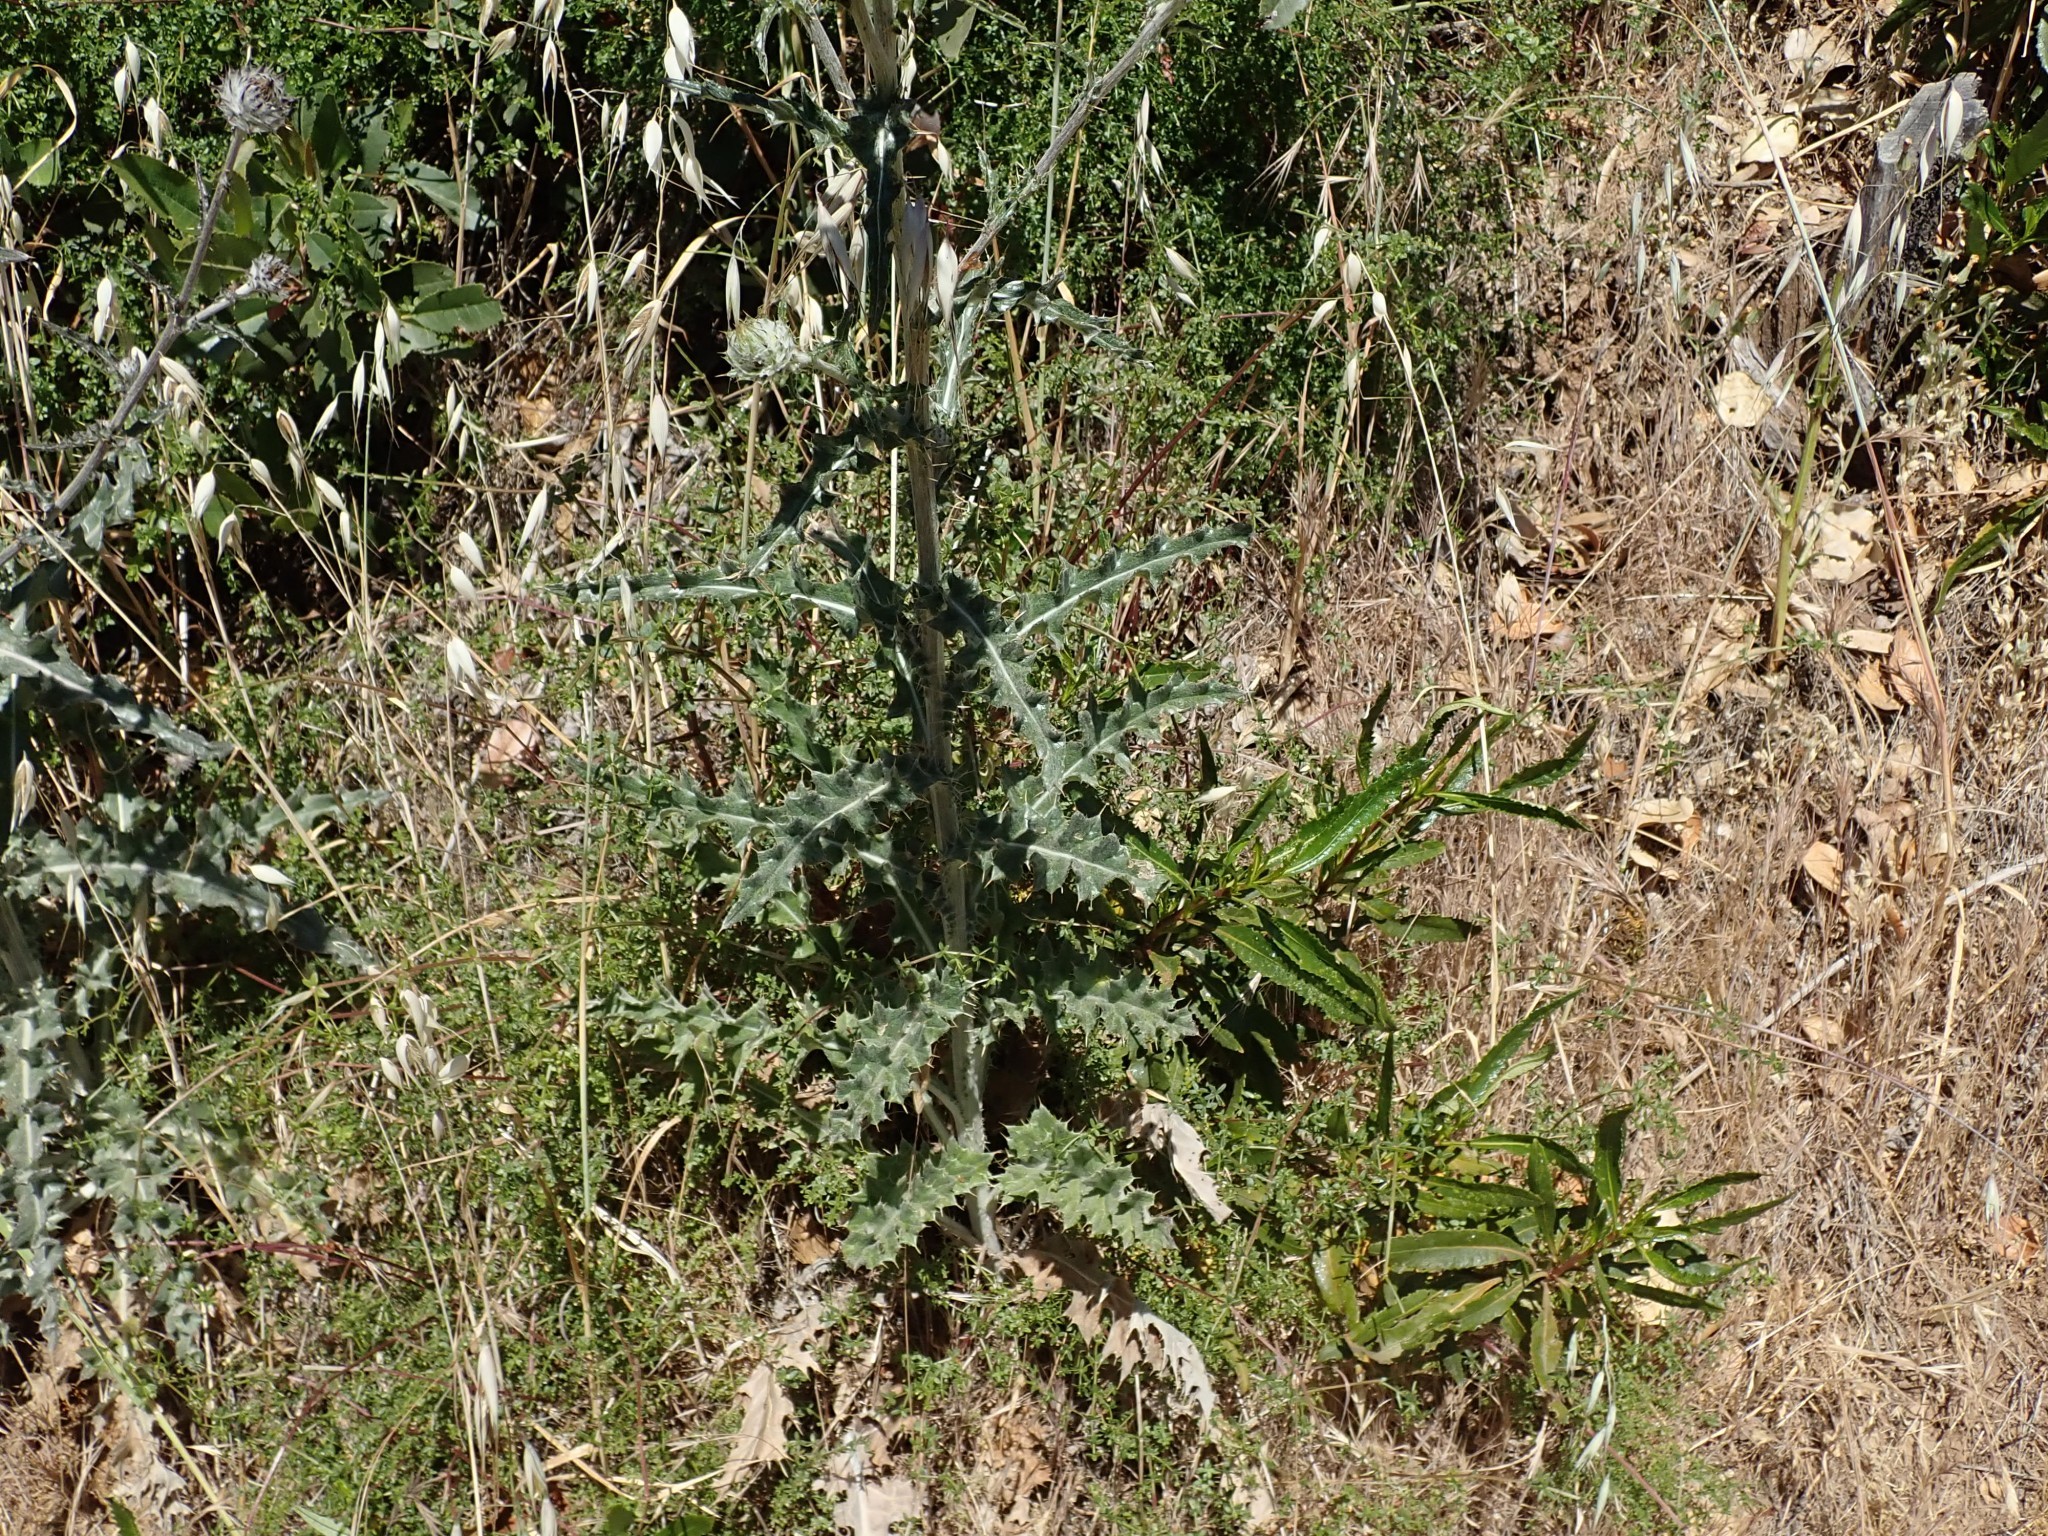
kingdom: Plantae
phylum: Tracheophyta
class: Magnoliopsida
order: Asterales
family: Asteraceae
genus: Cirsium
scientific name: Cirsium occidentale
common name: Western thistle
